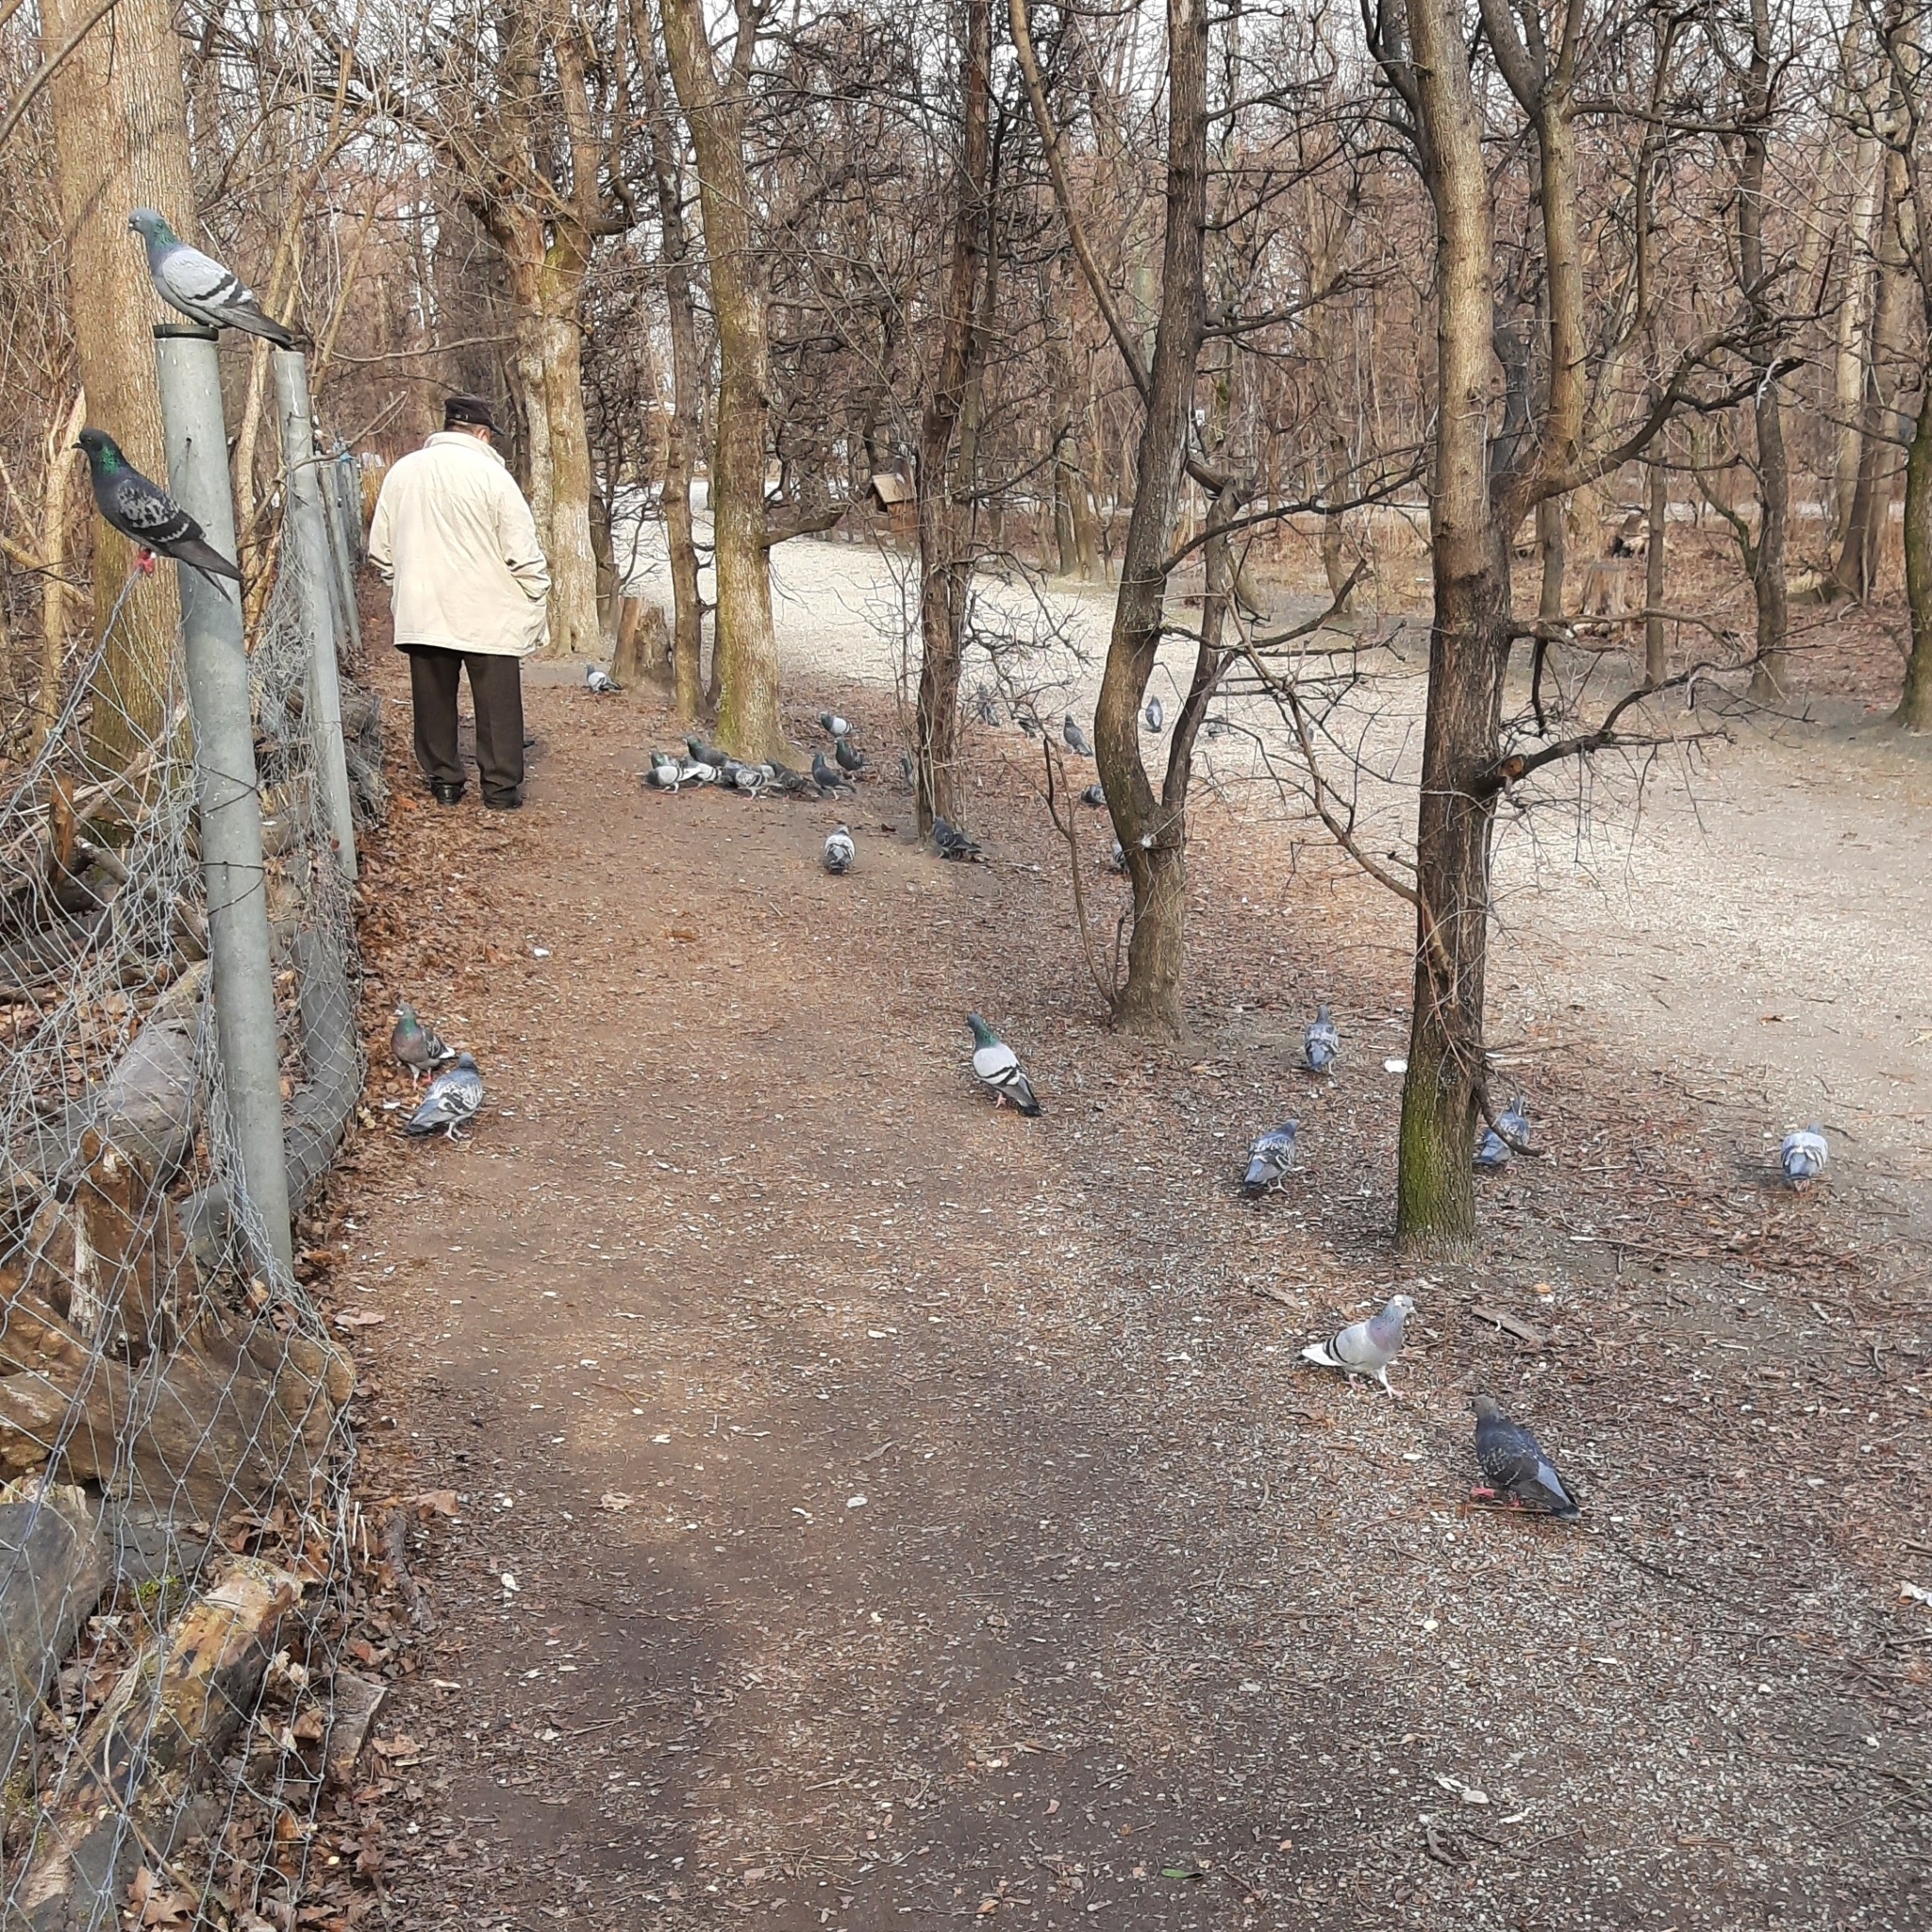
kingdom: Animalia
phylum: Chordata
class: Aves
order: Columbiformes
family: Columbidae
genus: Columba
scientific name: Columba livia
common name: Rock pigeon
